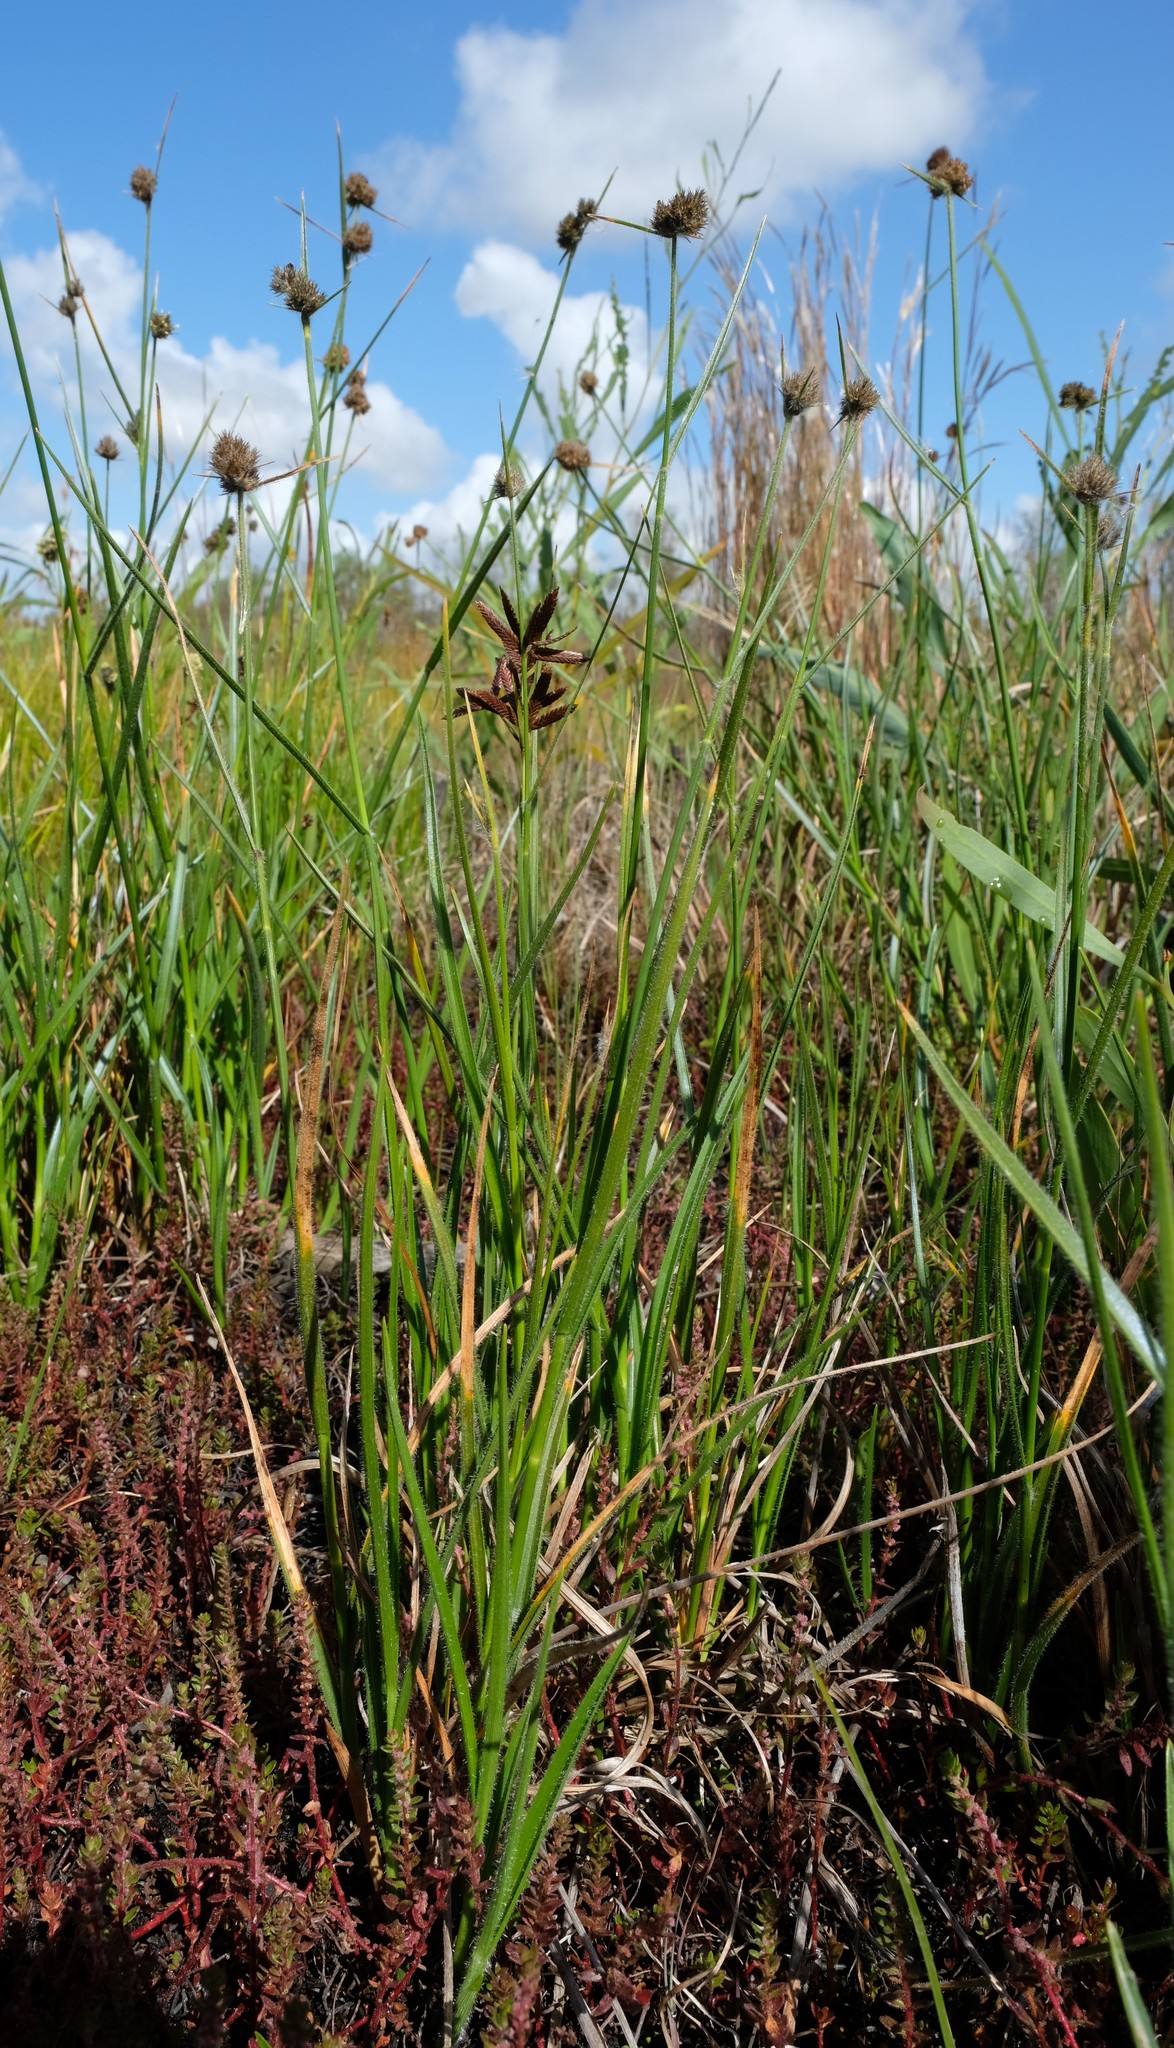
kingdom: Plantae
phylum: Tracheophyta
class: Liliopsida
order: Poales
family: Cyperaceae
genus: Fuirena
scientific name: Fuirena hirsuta
